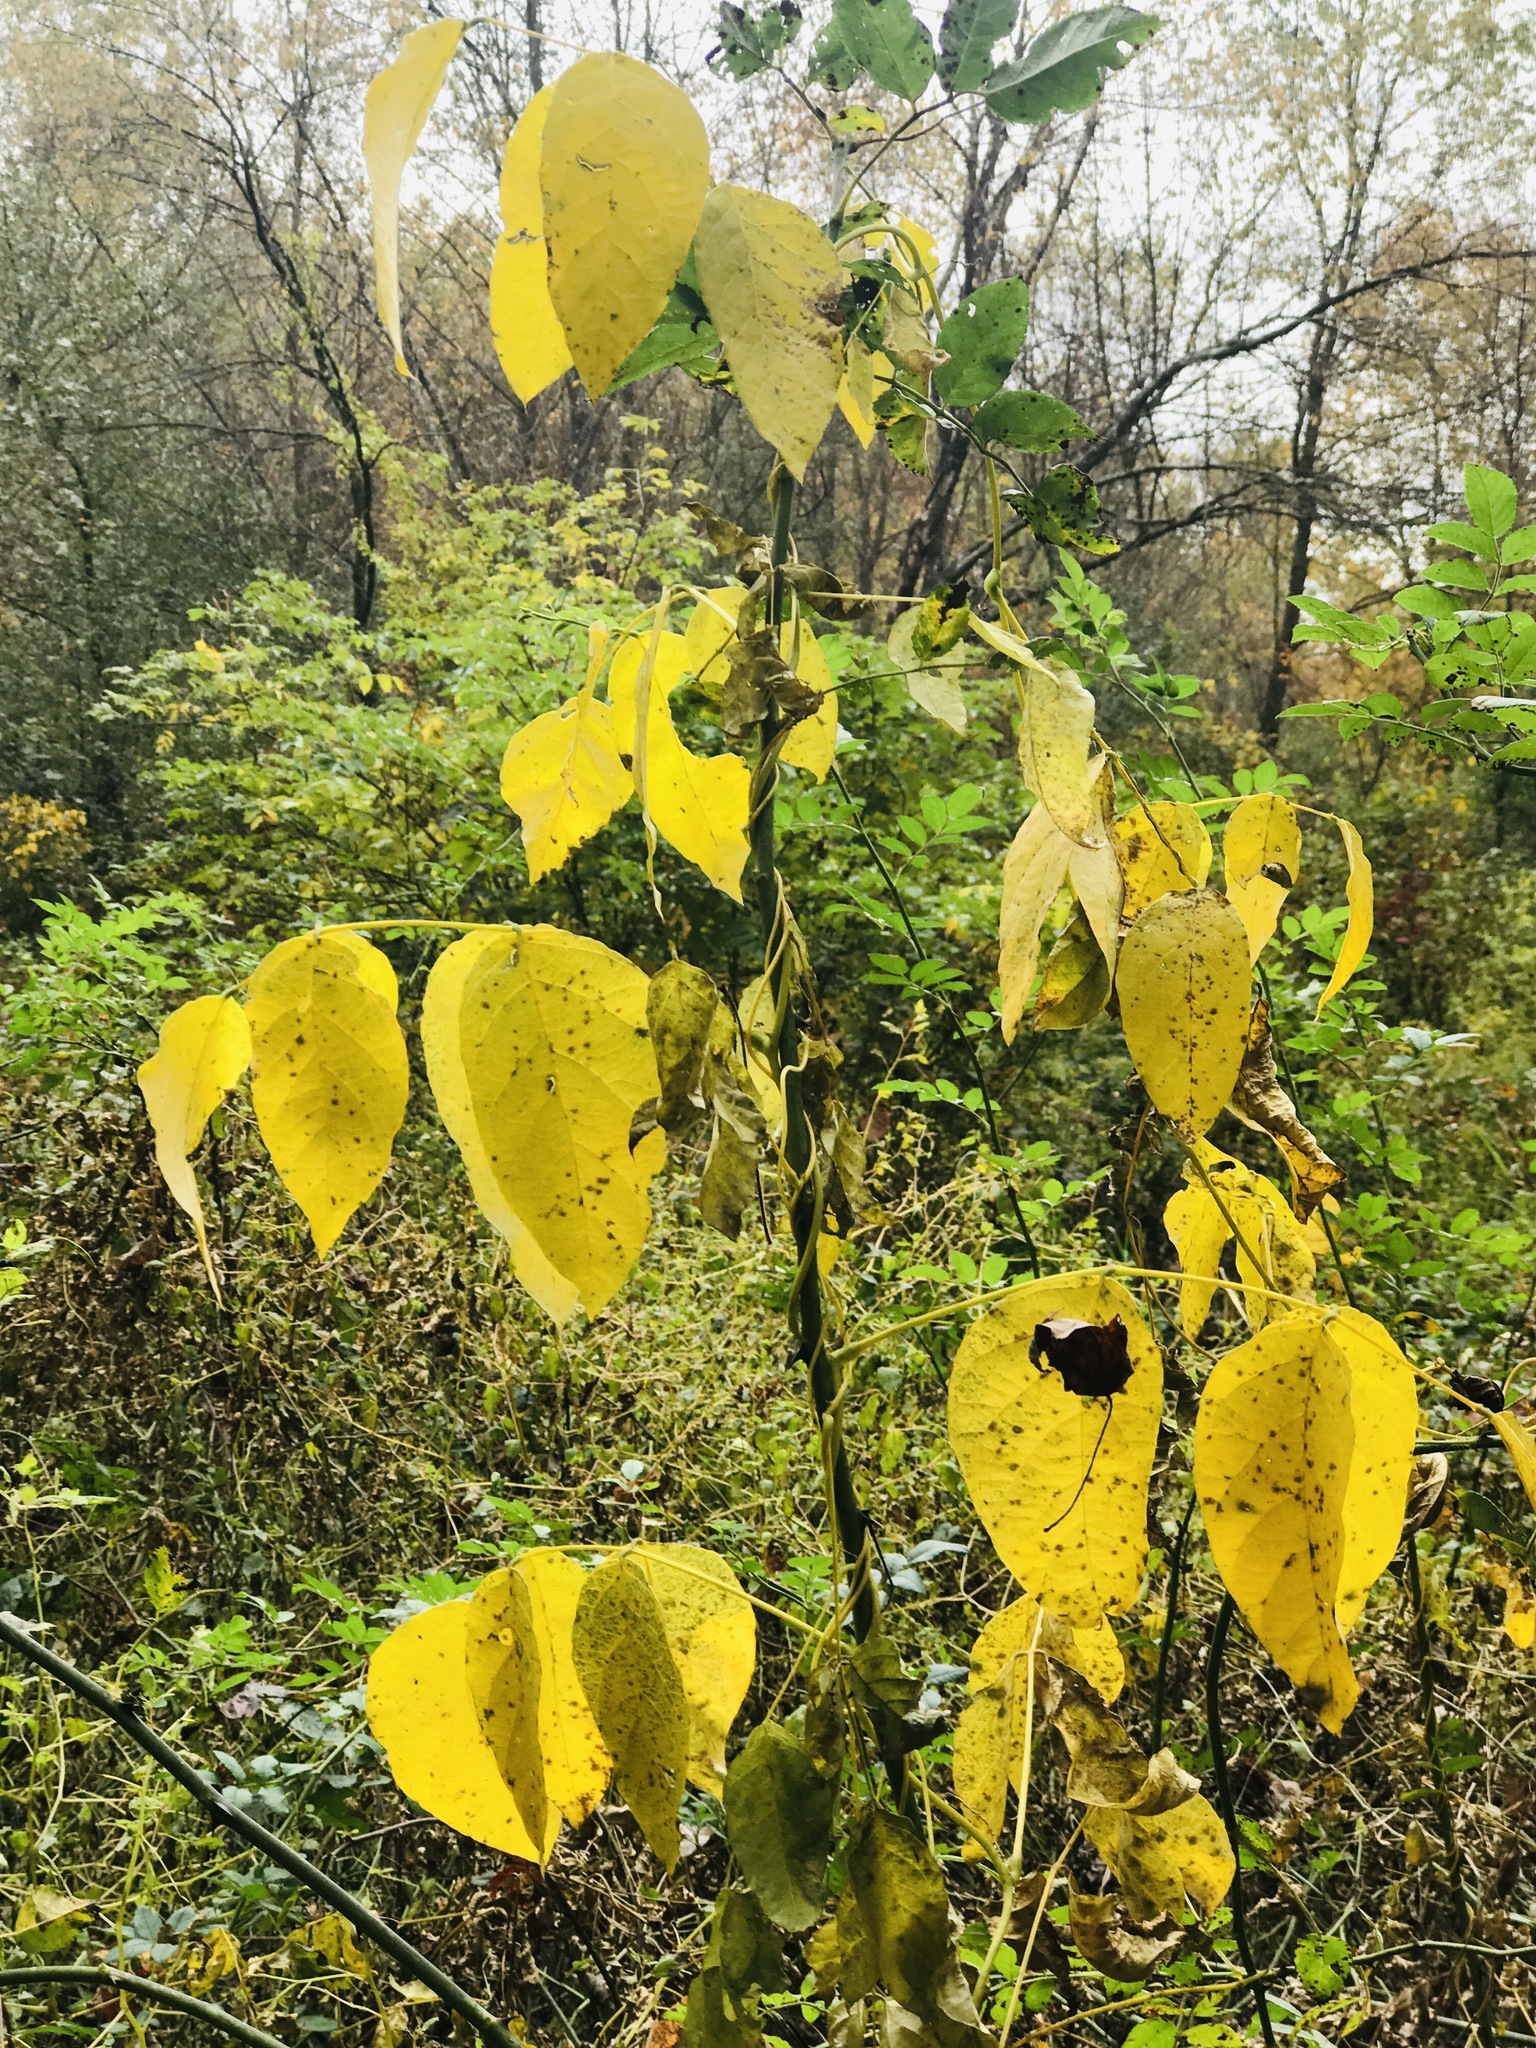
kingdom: Plantae
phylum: Tracheophyta
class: Magnoliopsida
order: Fabales
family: Fabaceae
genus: Apios
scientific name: Apios americana
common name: American potato-bean
